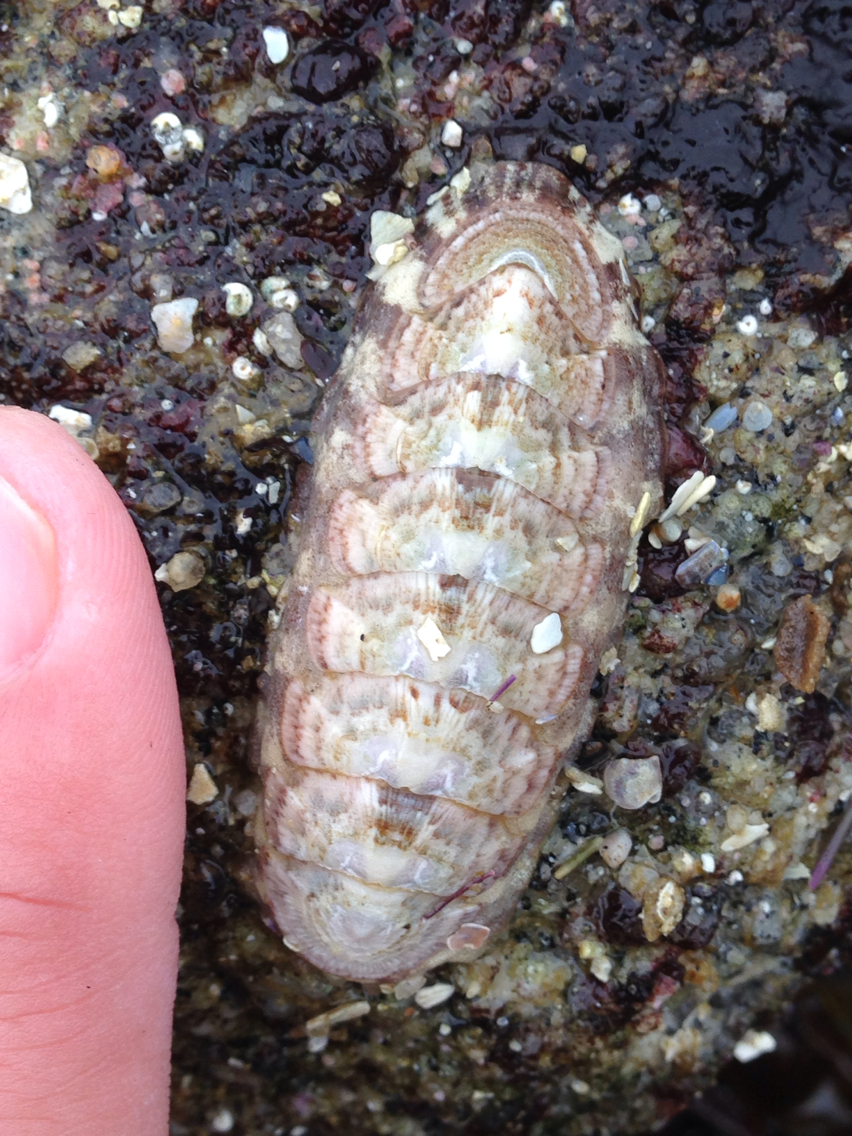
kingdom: Animalia
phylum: Mollusca
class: Polyplacophora
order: Chitonida
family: Ischnochitonidae
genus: Stenoplax
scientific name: Stenoplax heathiana
